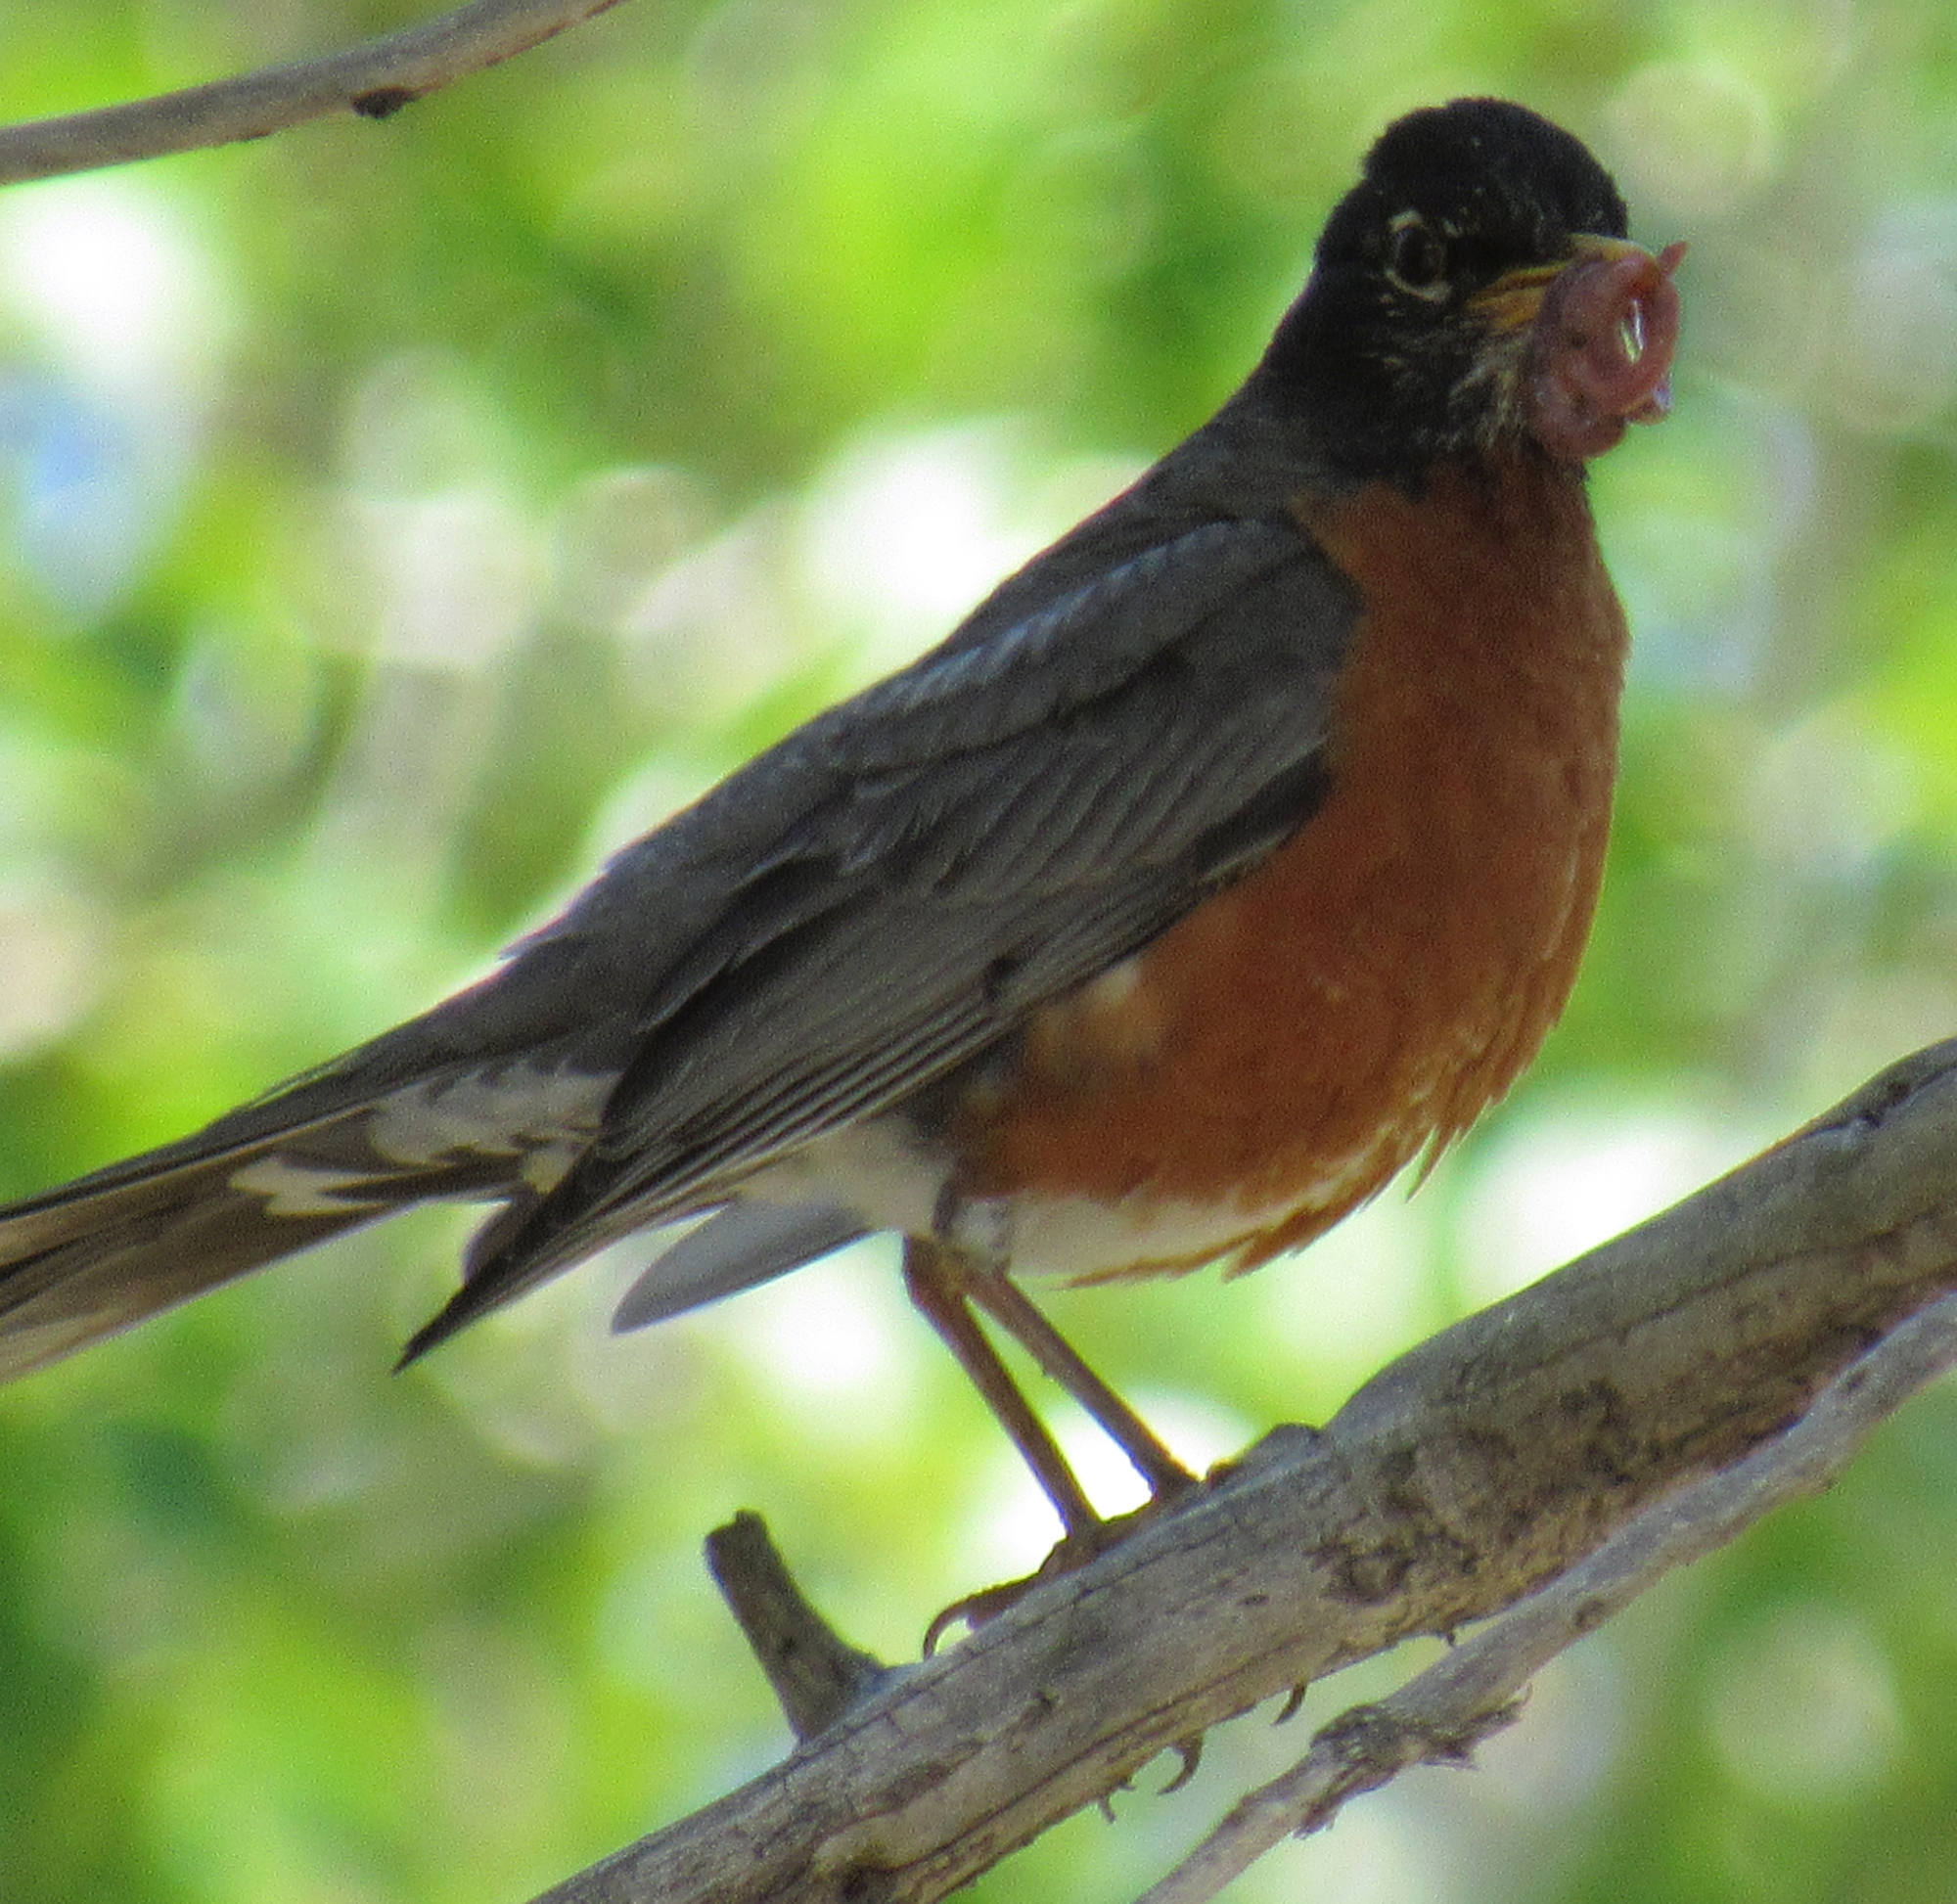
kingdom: Animalia
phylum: Chordata
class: Aves
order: Passeriformes
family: Turdidae
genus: Turdus
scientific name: Turdus migratorius
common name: American robin
